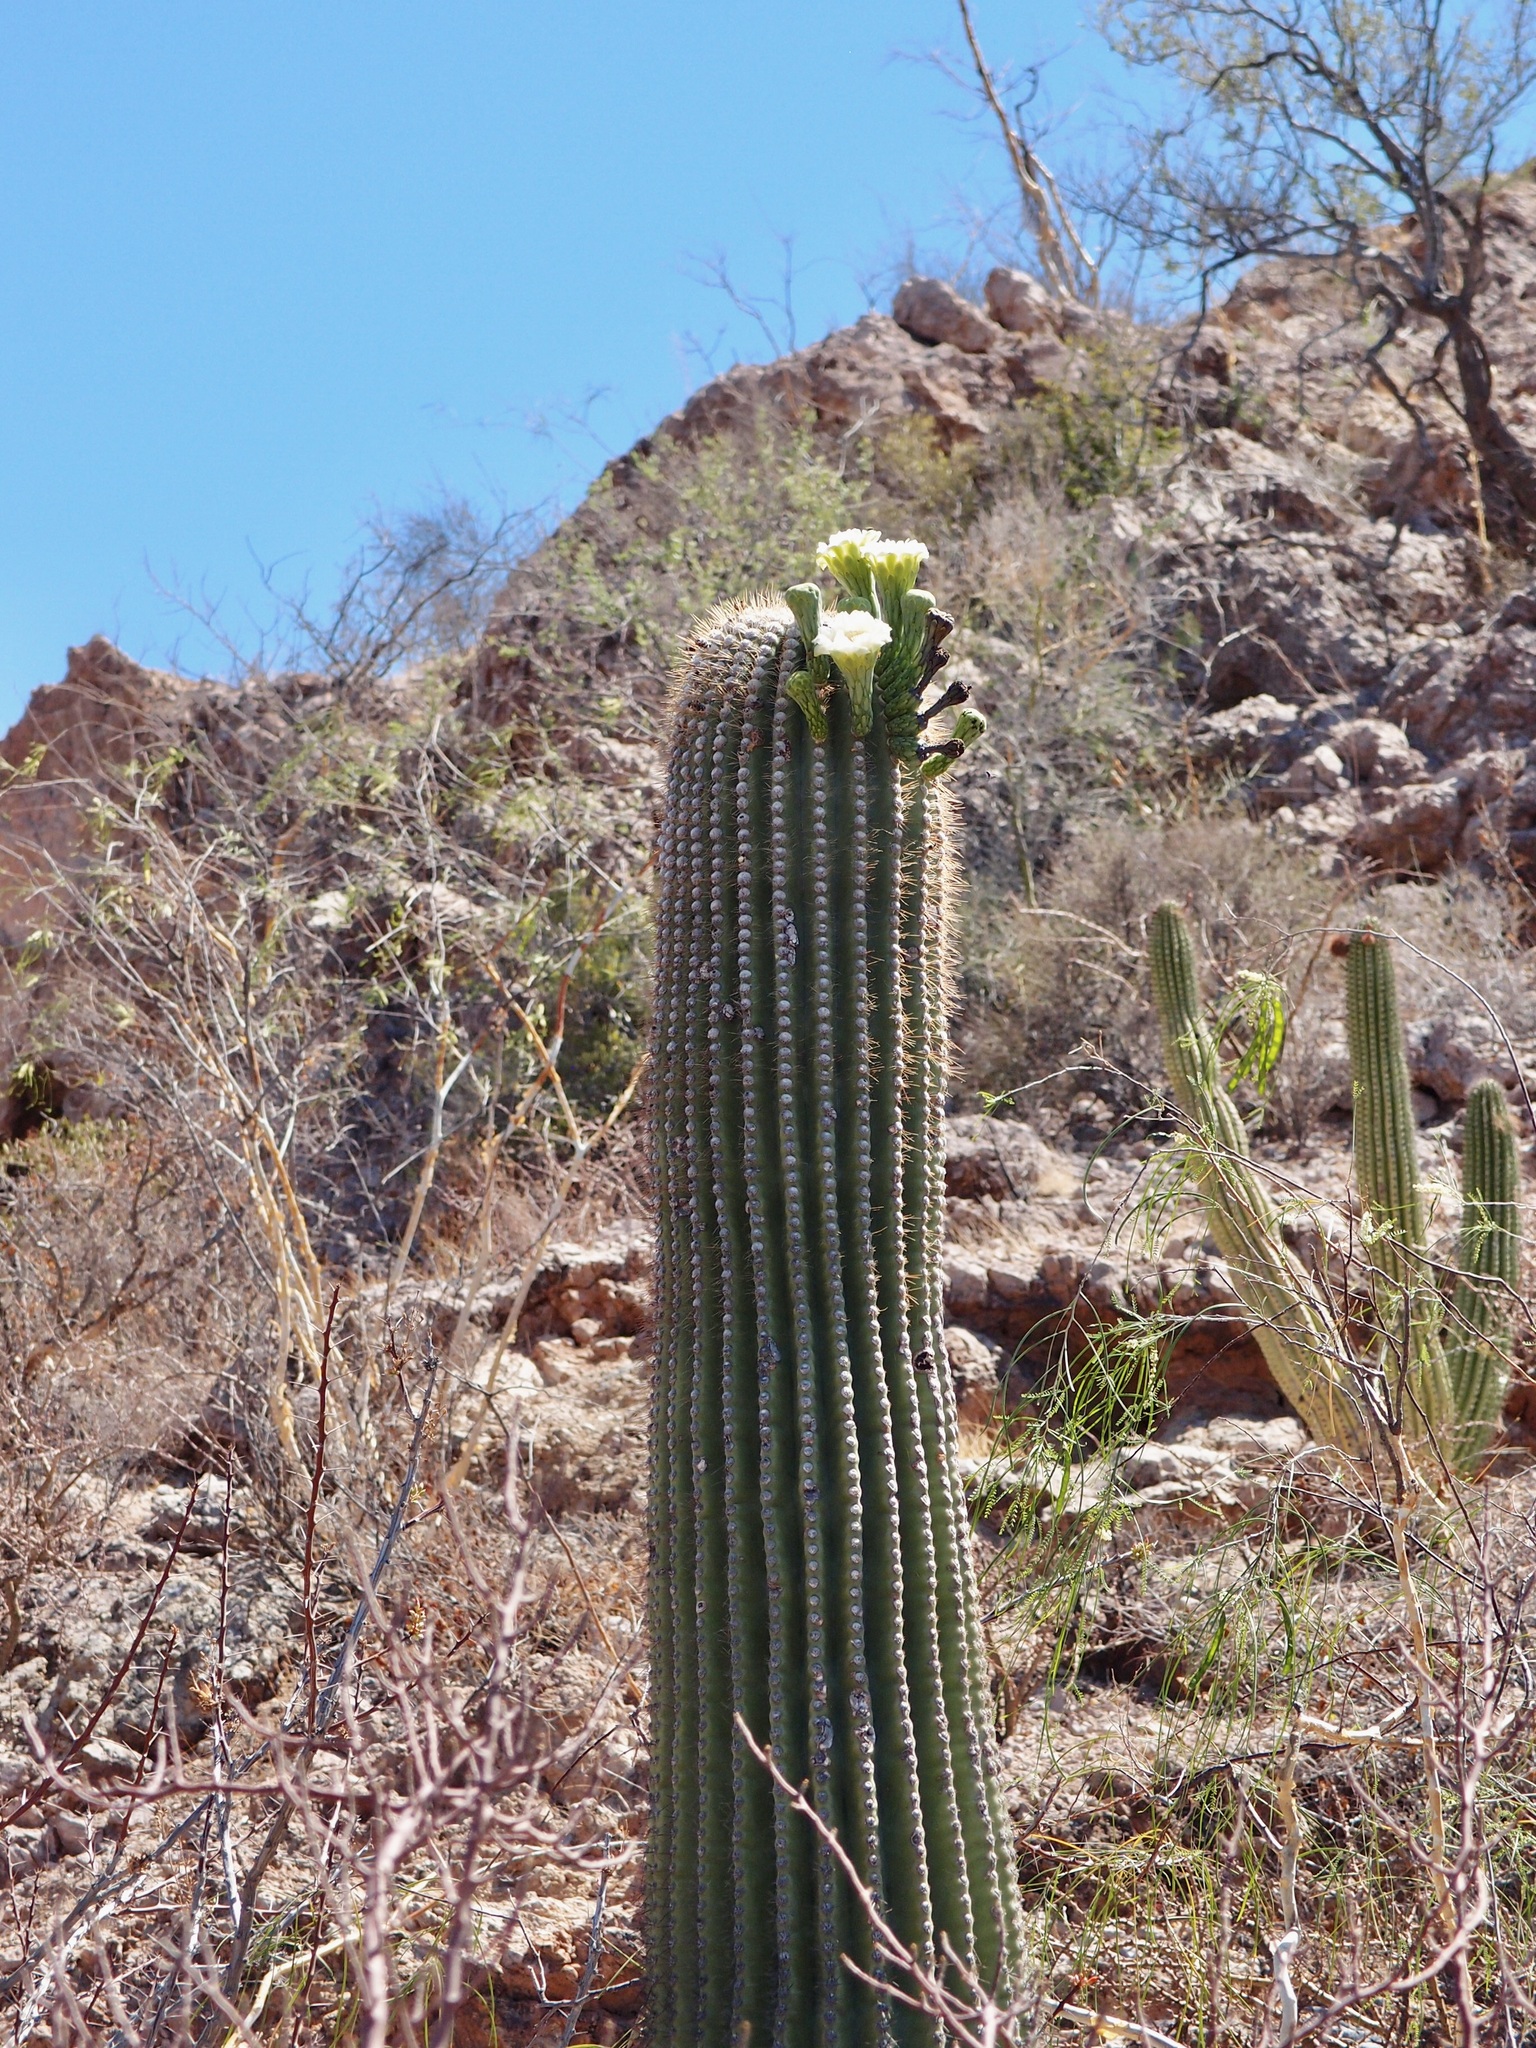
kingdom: Plantae
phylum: Tracheophyta
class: Magnoliopsida
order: Caryophyllales
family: Cactaceae
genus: Carnegiea
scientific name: Carnegiea gigantea
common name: Saguaro
